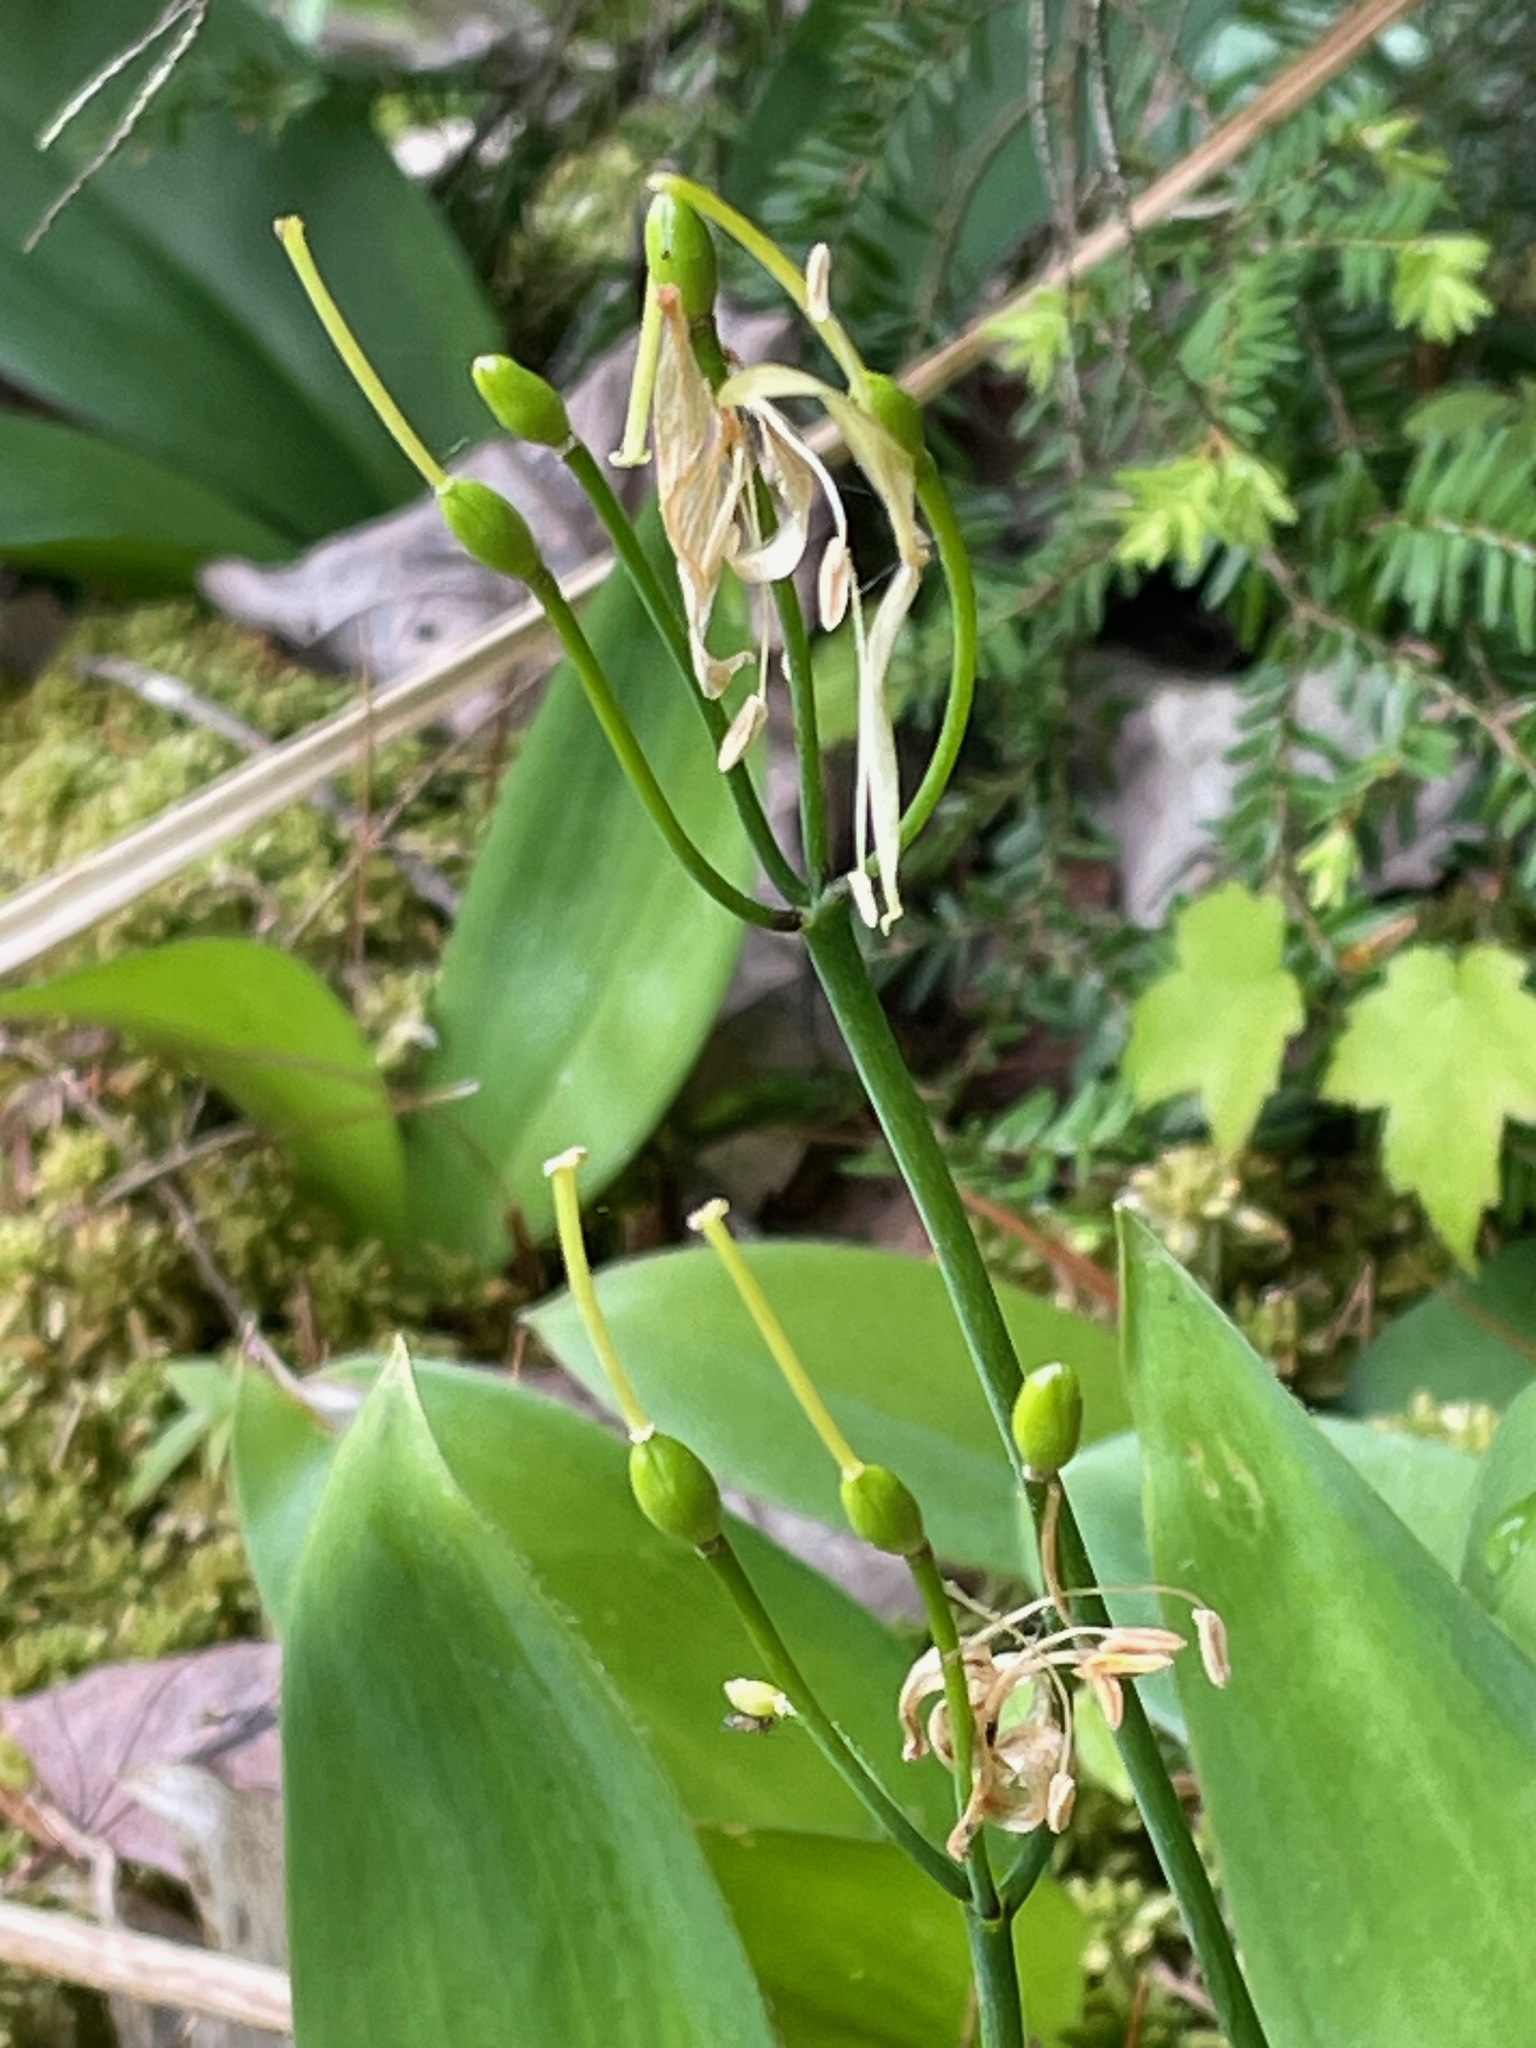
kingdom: Plantae
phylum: Tracheophyta
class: Liliopsida
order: Liliales
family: Liliaceae
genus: Clintonia
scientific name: Clintonia borealis
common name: Yellow clintonia
